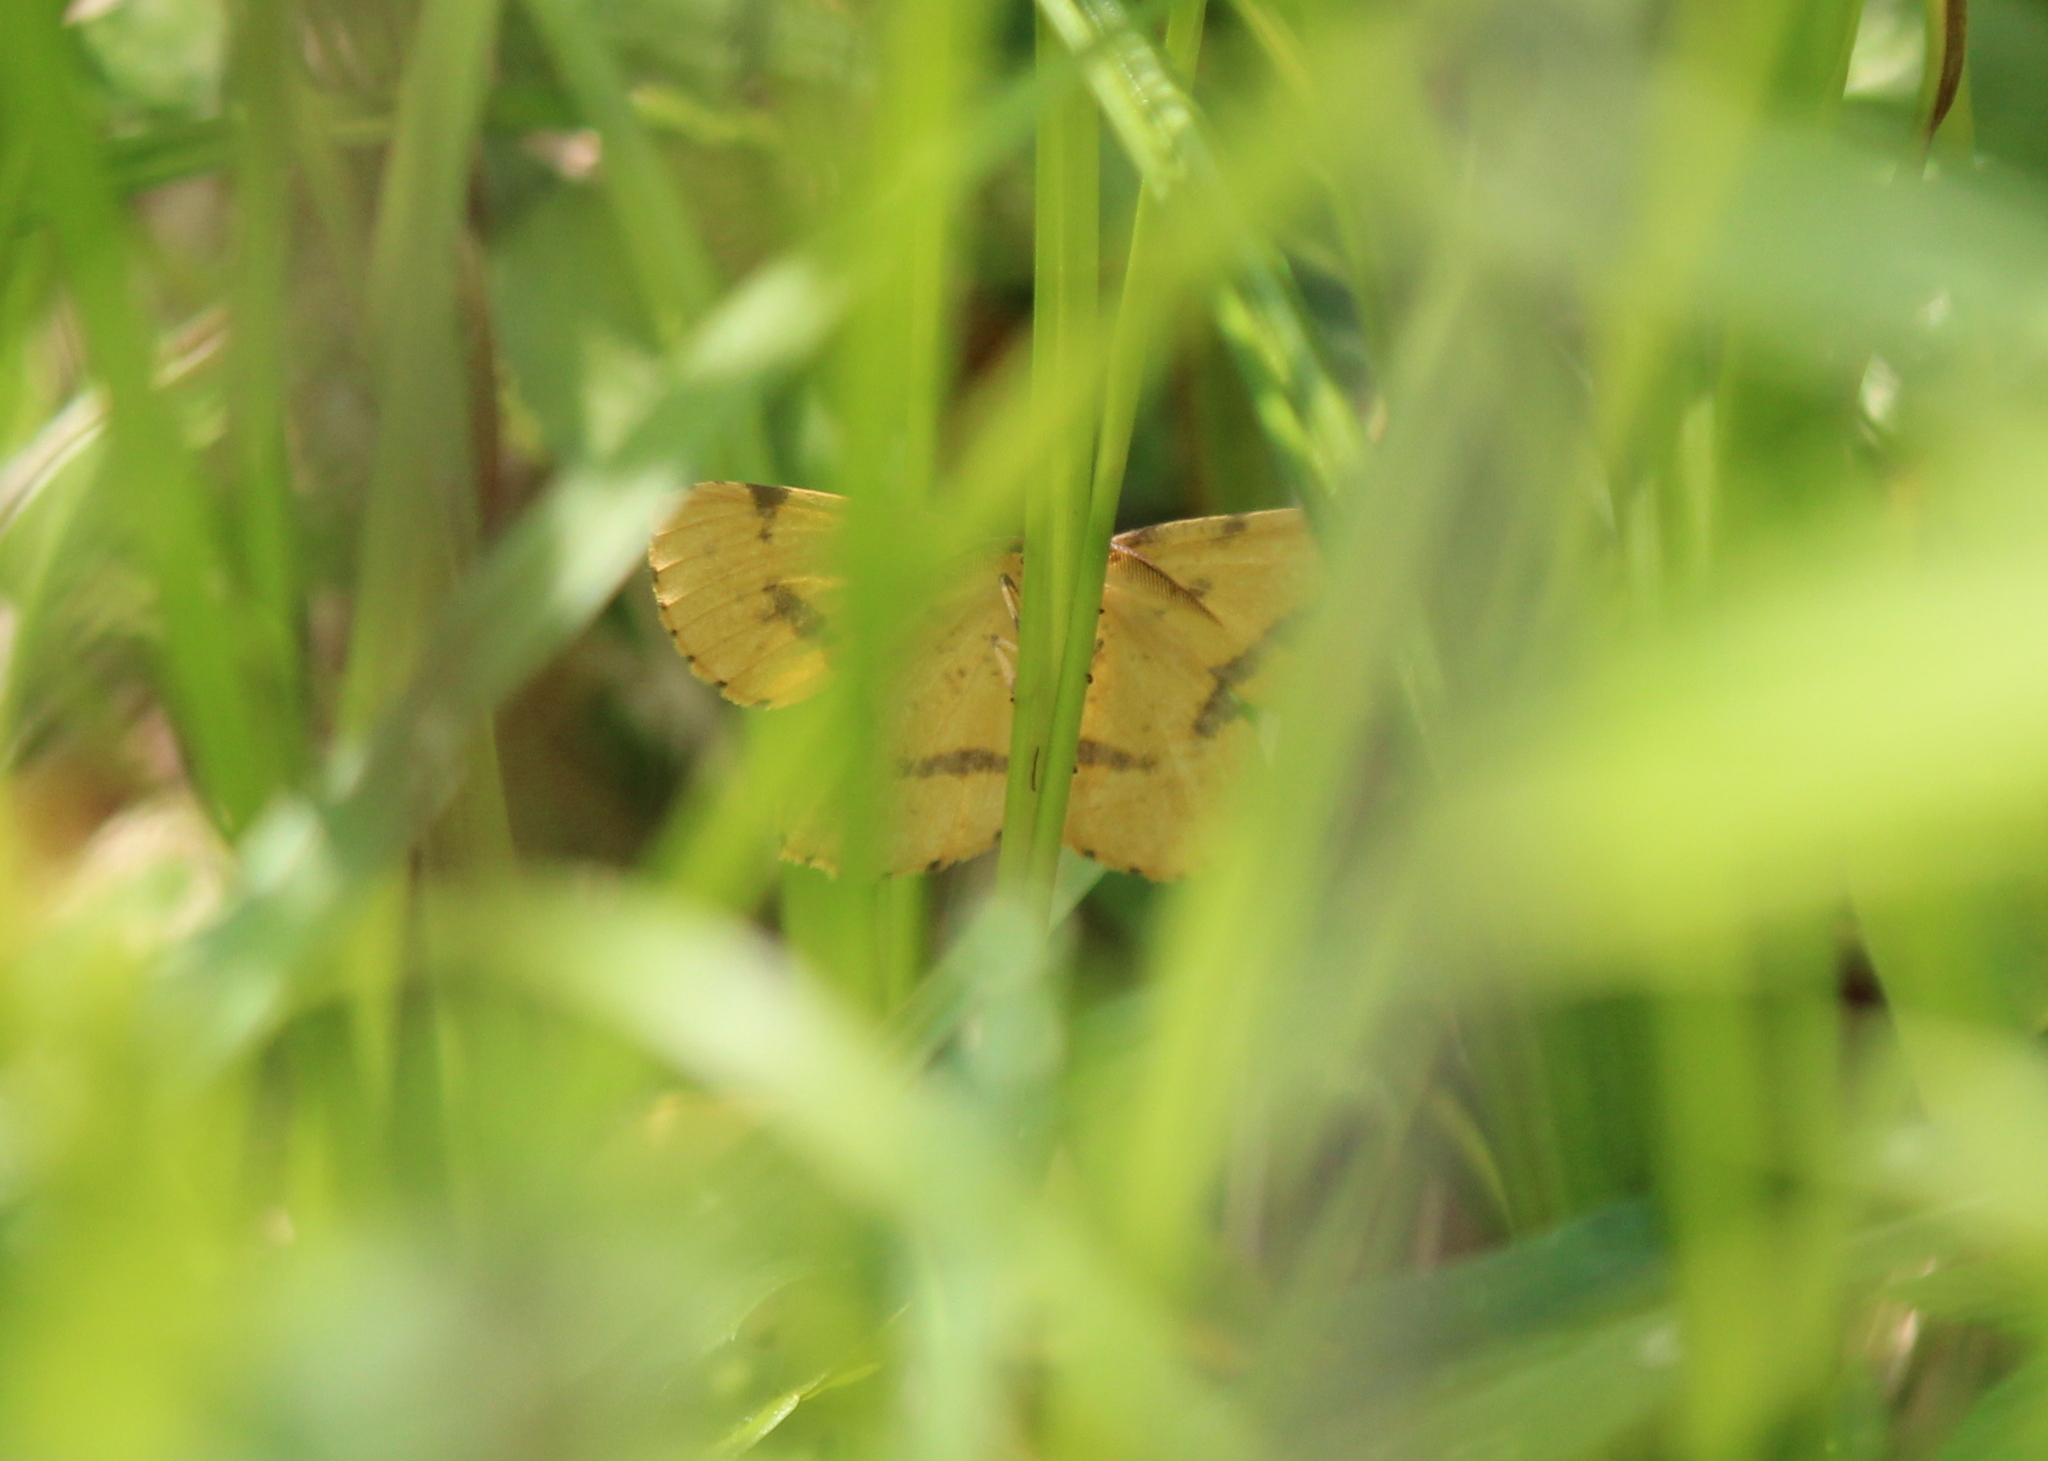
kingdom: Animalia
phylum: Arthropoda
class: Insecta
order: Lepidoptera
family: Geometridae
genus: Xanthotype
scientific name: Xanthotype
